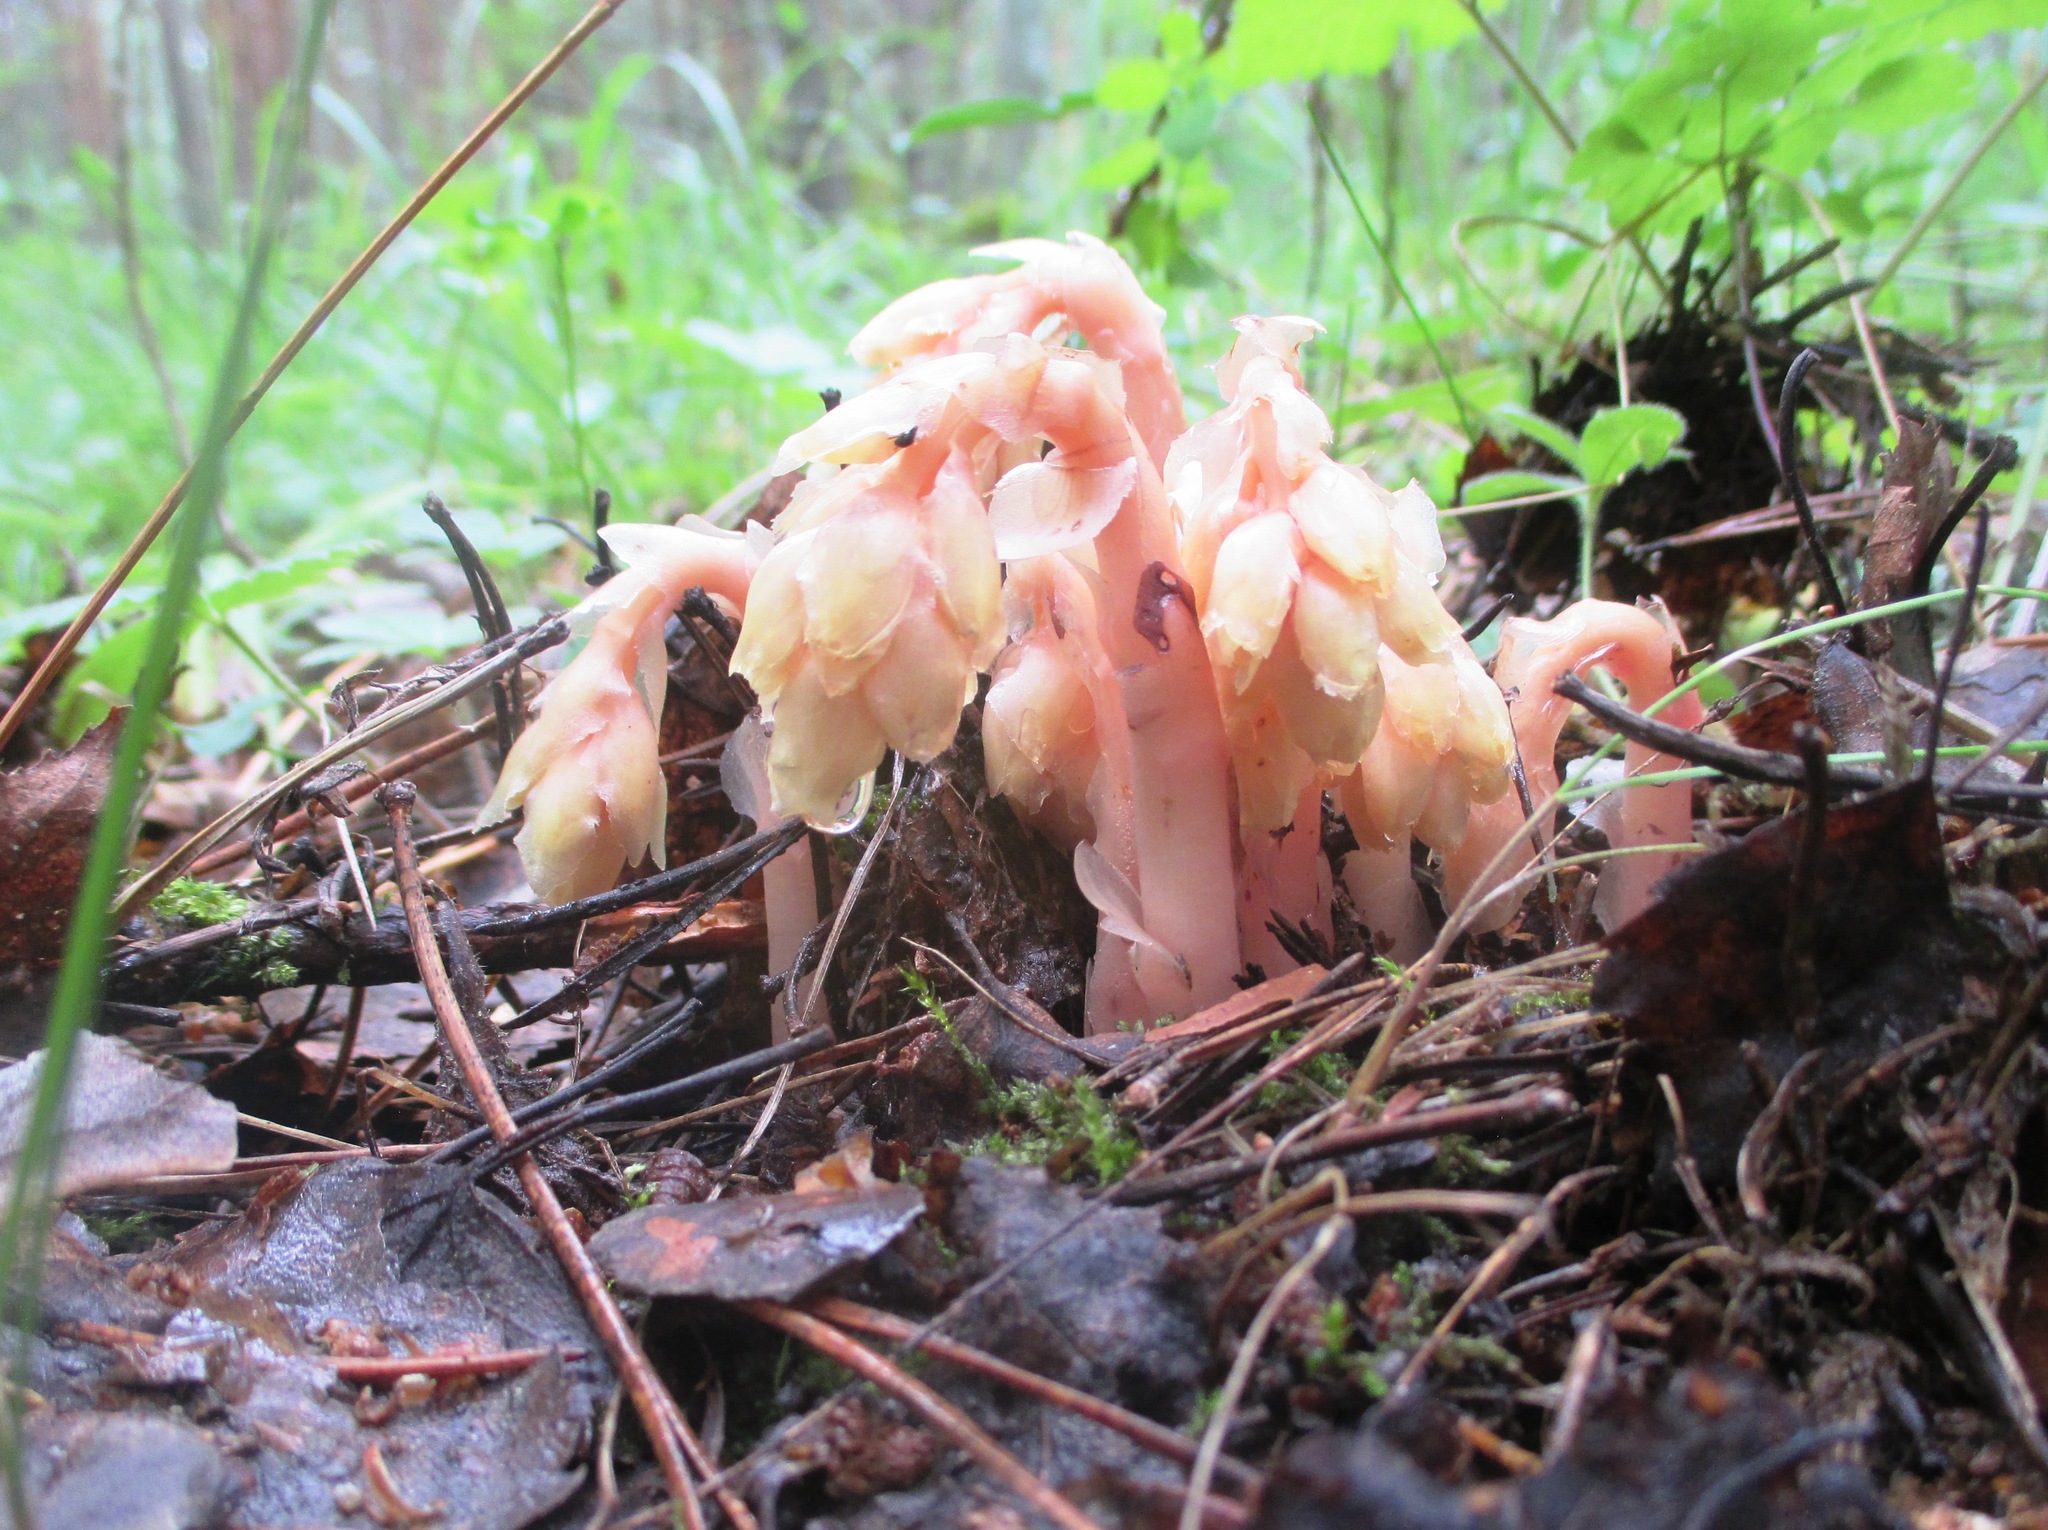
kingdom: Plantae
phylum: Tracheophyta
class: Magnoliopsida
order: Ericales
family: Ericaceae
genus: Hypopitys
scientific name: Hypopitys monotropa
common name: Yellow bird's-nest
